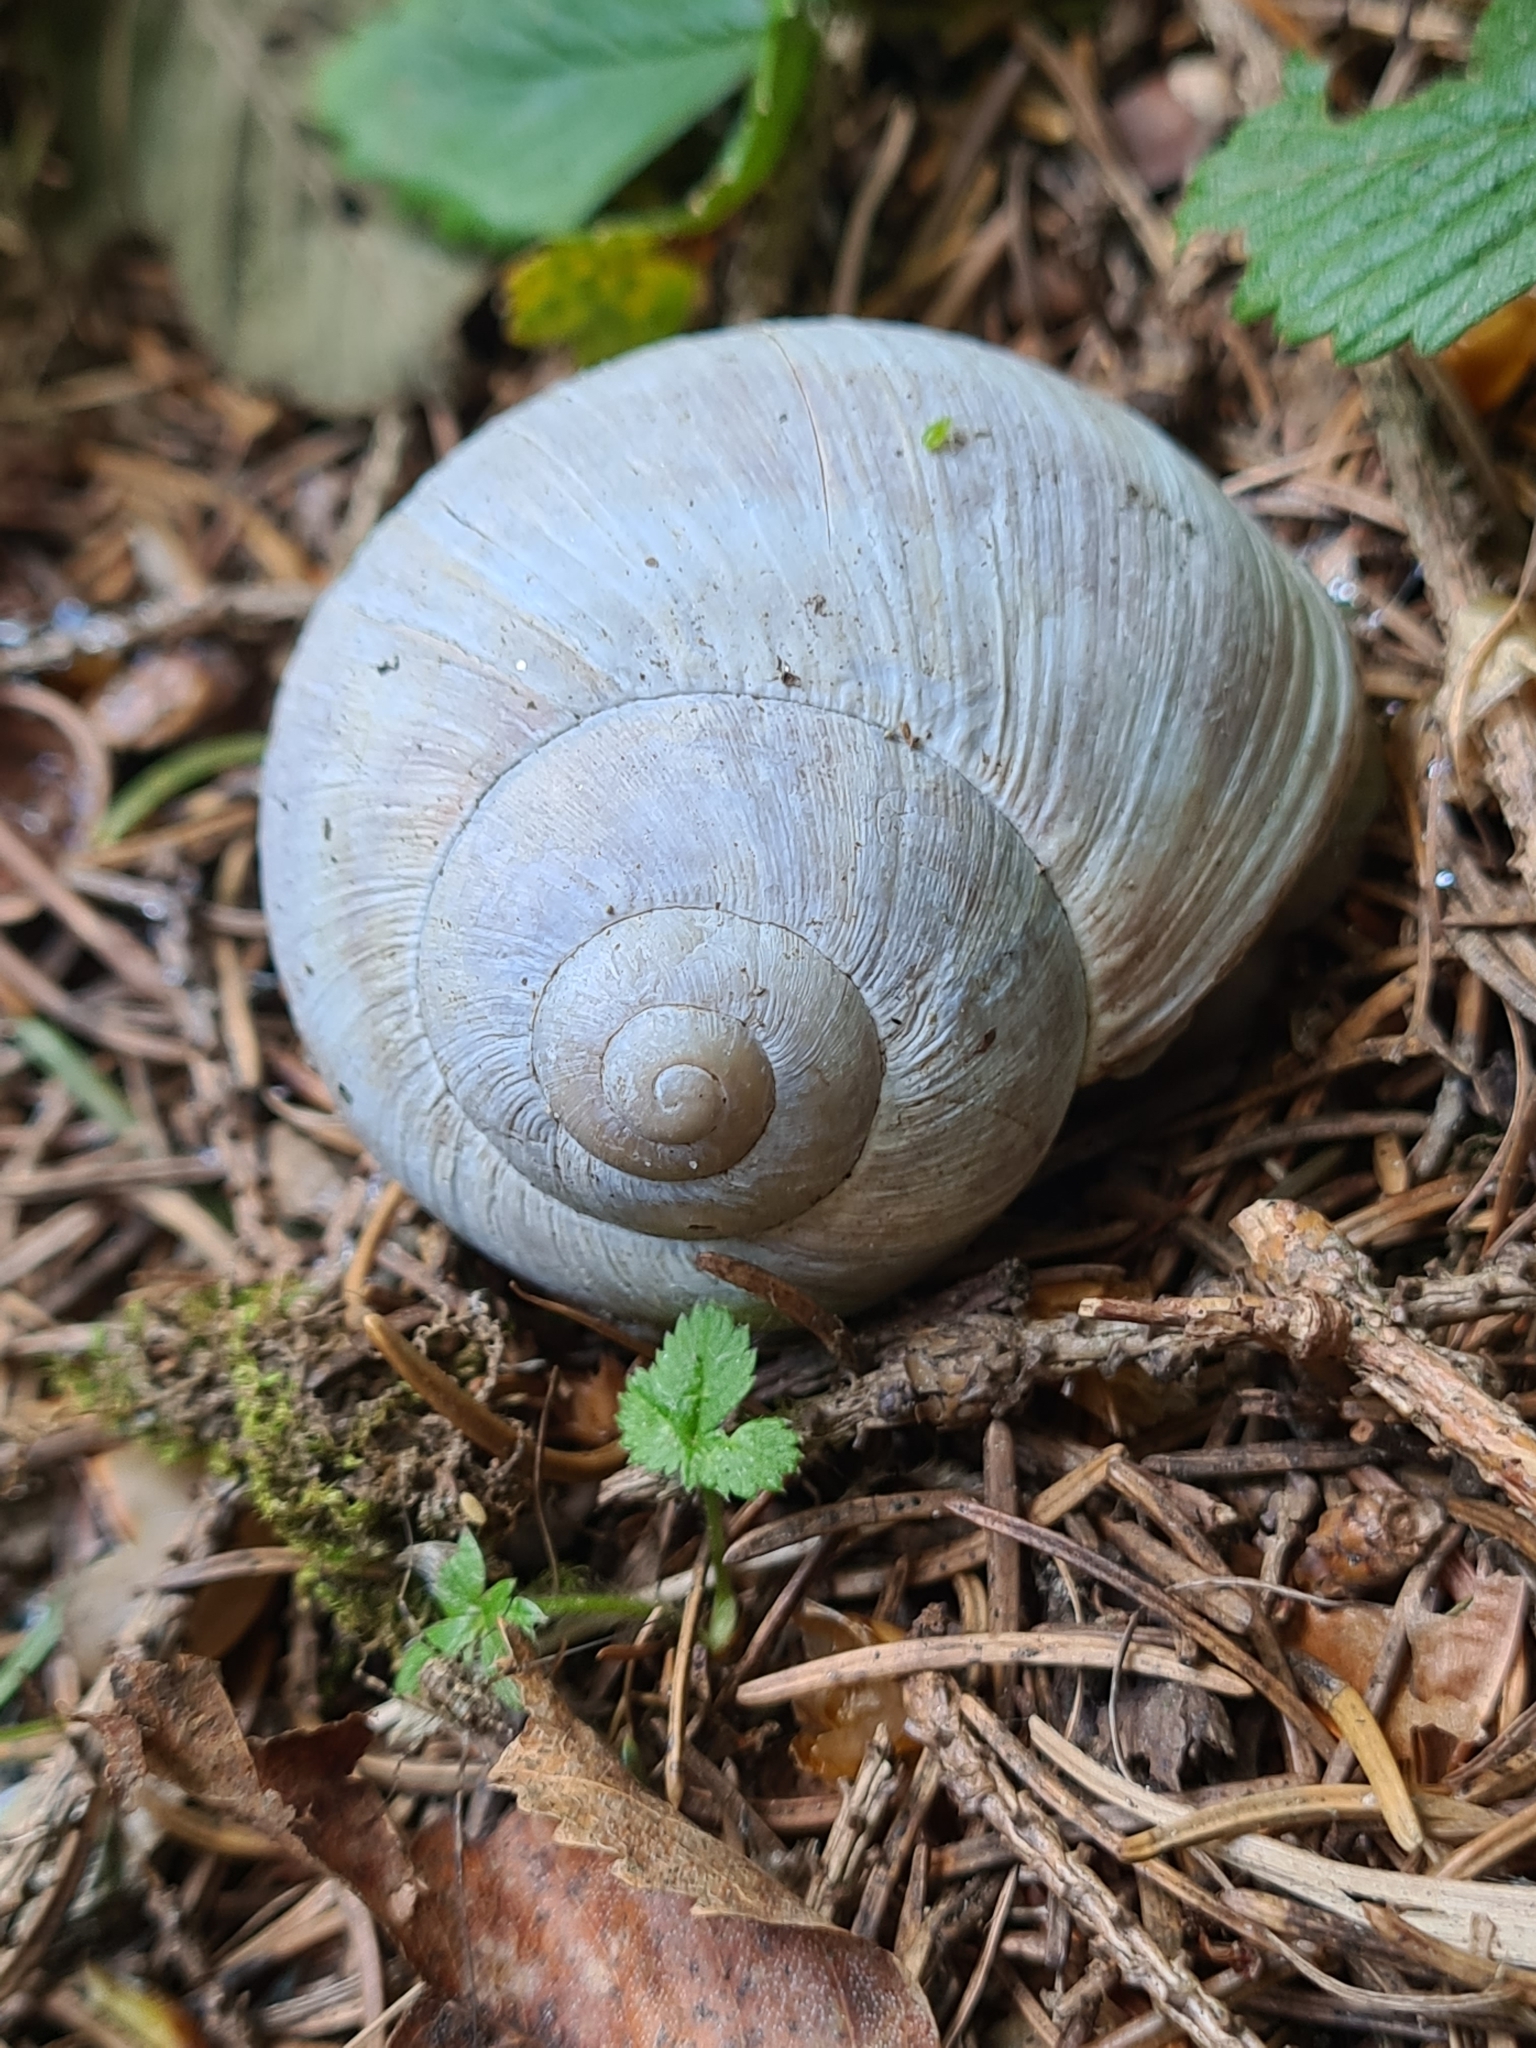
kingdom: Animalia
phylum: Mollusca
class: Gastropoda
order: Stylommatophora
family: Helicidae
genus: Helix
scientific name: Helix pomatia
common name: Roman snail
